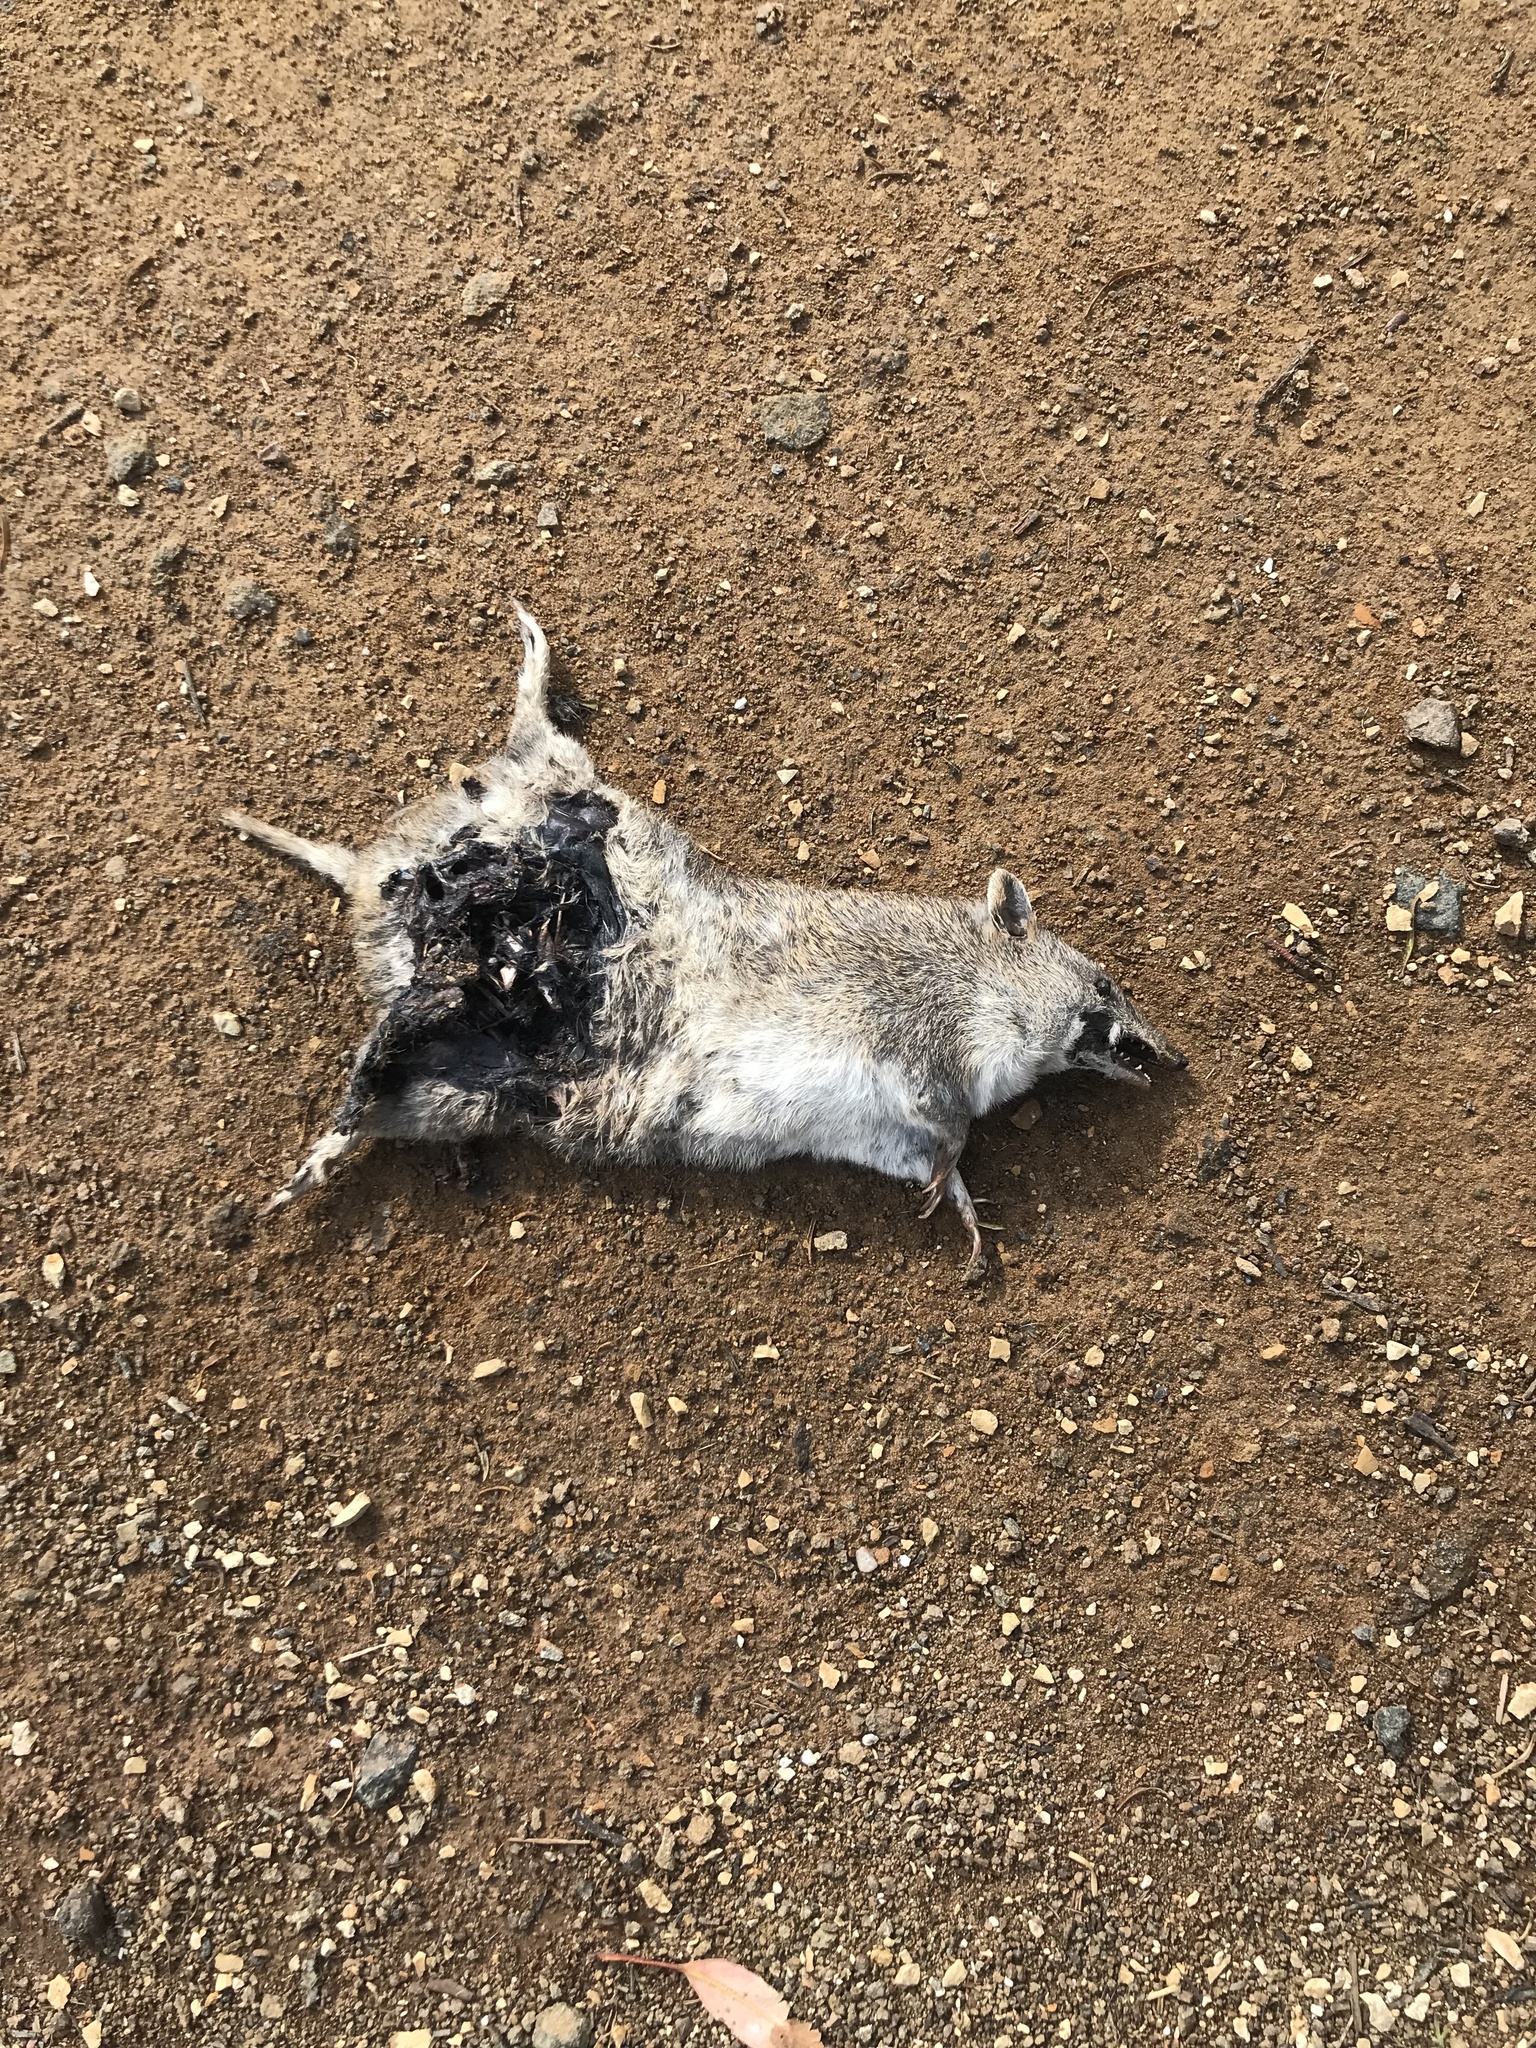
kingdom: Animalia
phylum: Chordata
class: Mammalia
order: Peramelemorphia
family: Peramelidae
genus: Isoodon
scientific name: Isoodon obesulus
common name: Southern brown bandicoot
